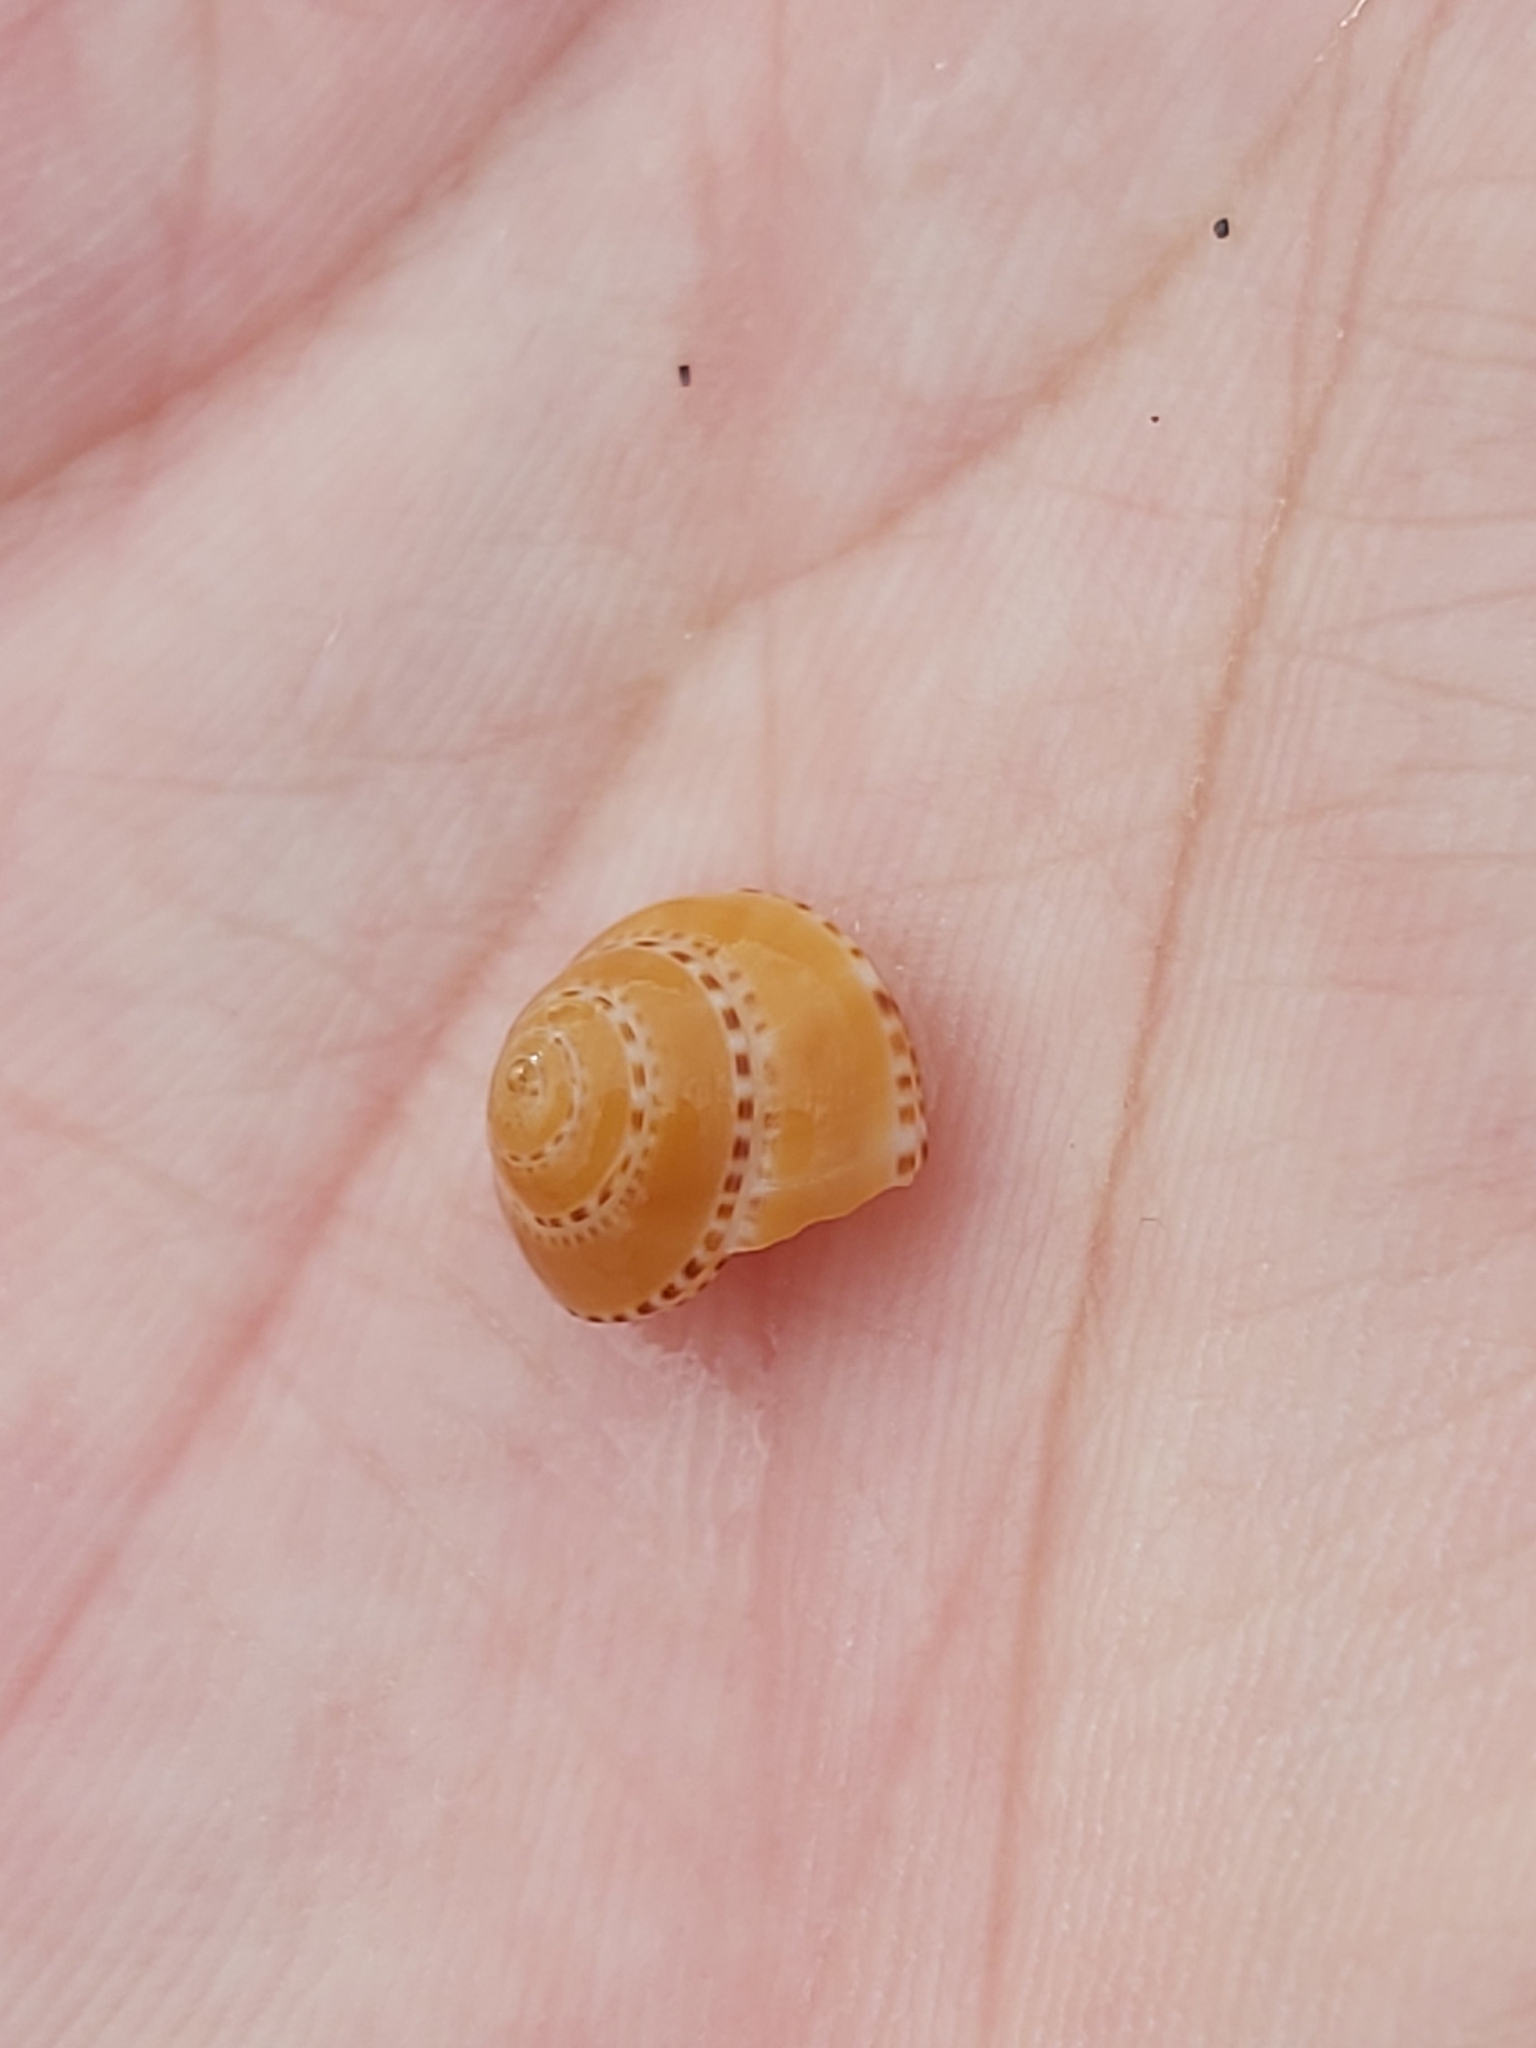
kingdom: Animalia
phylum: Mollusca
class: Gastropoda
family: Architectonicidae
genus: Philippia
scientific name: Philippia lutea
